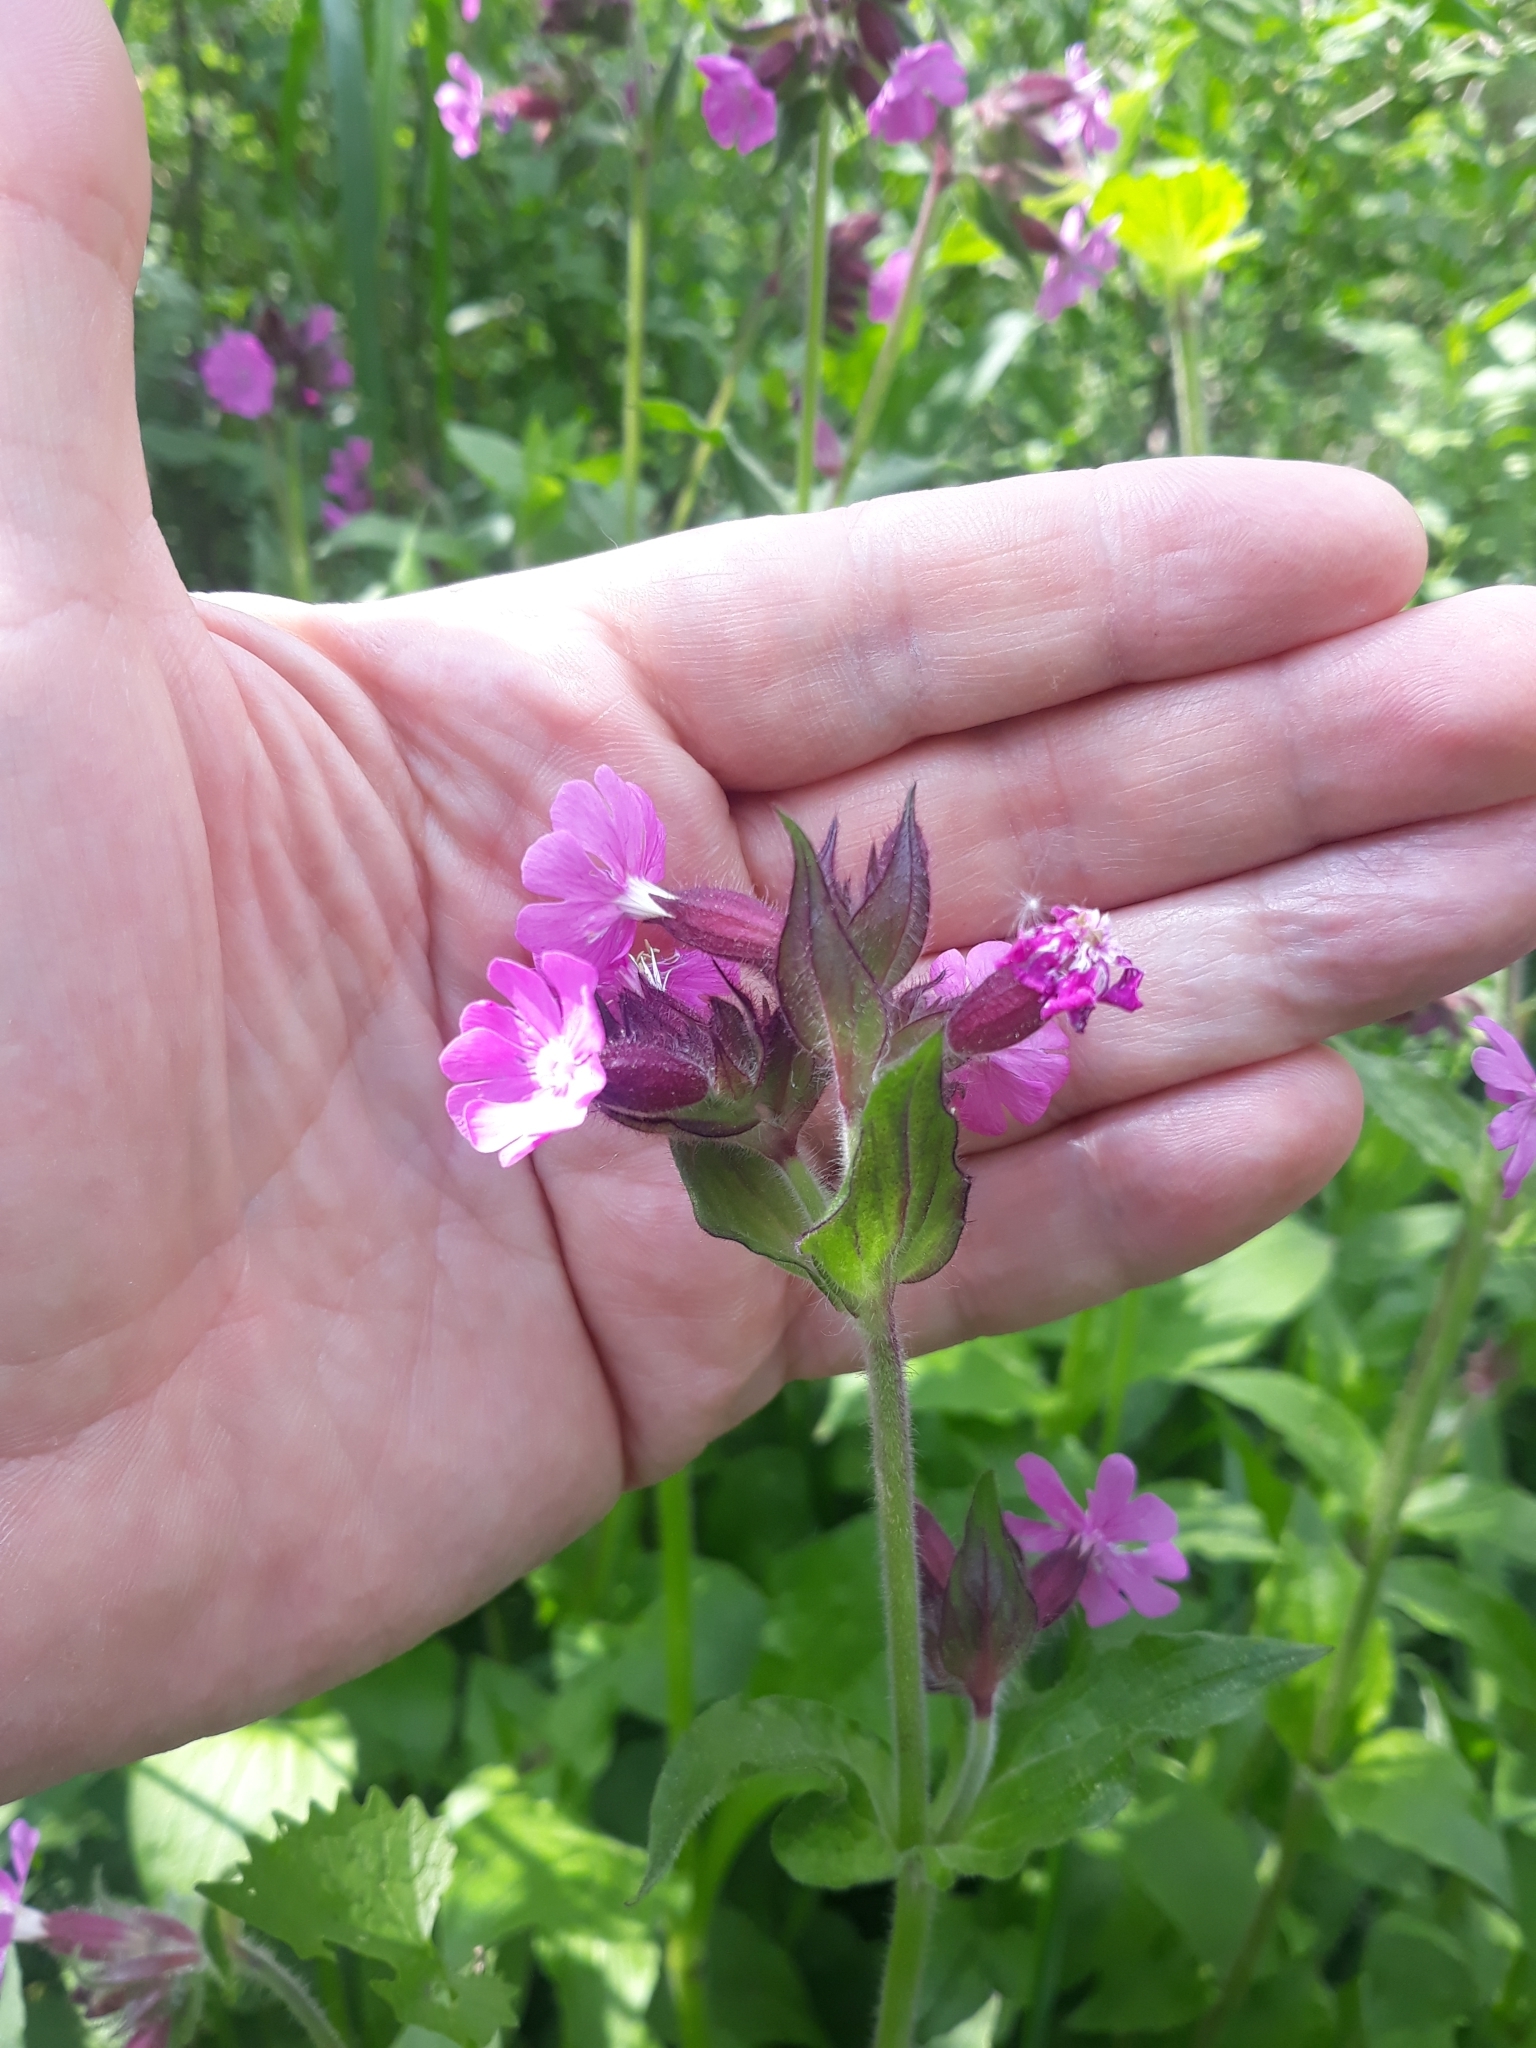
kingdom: Plantae
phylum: Tracheophyta
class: Magnoliopsida
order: Caryophyllales
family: Caryophyllaceae
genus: Silene
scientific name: Silene dioica
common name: Red campion
